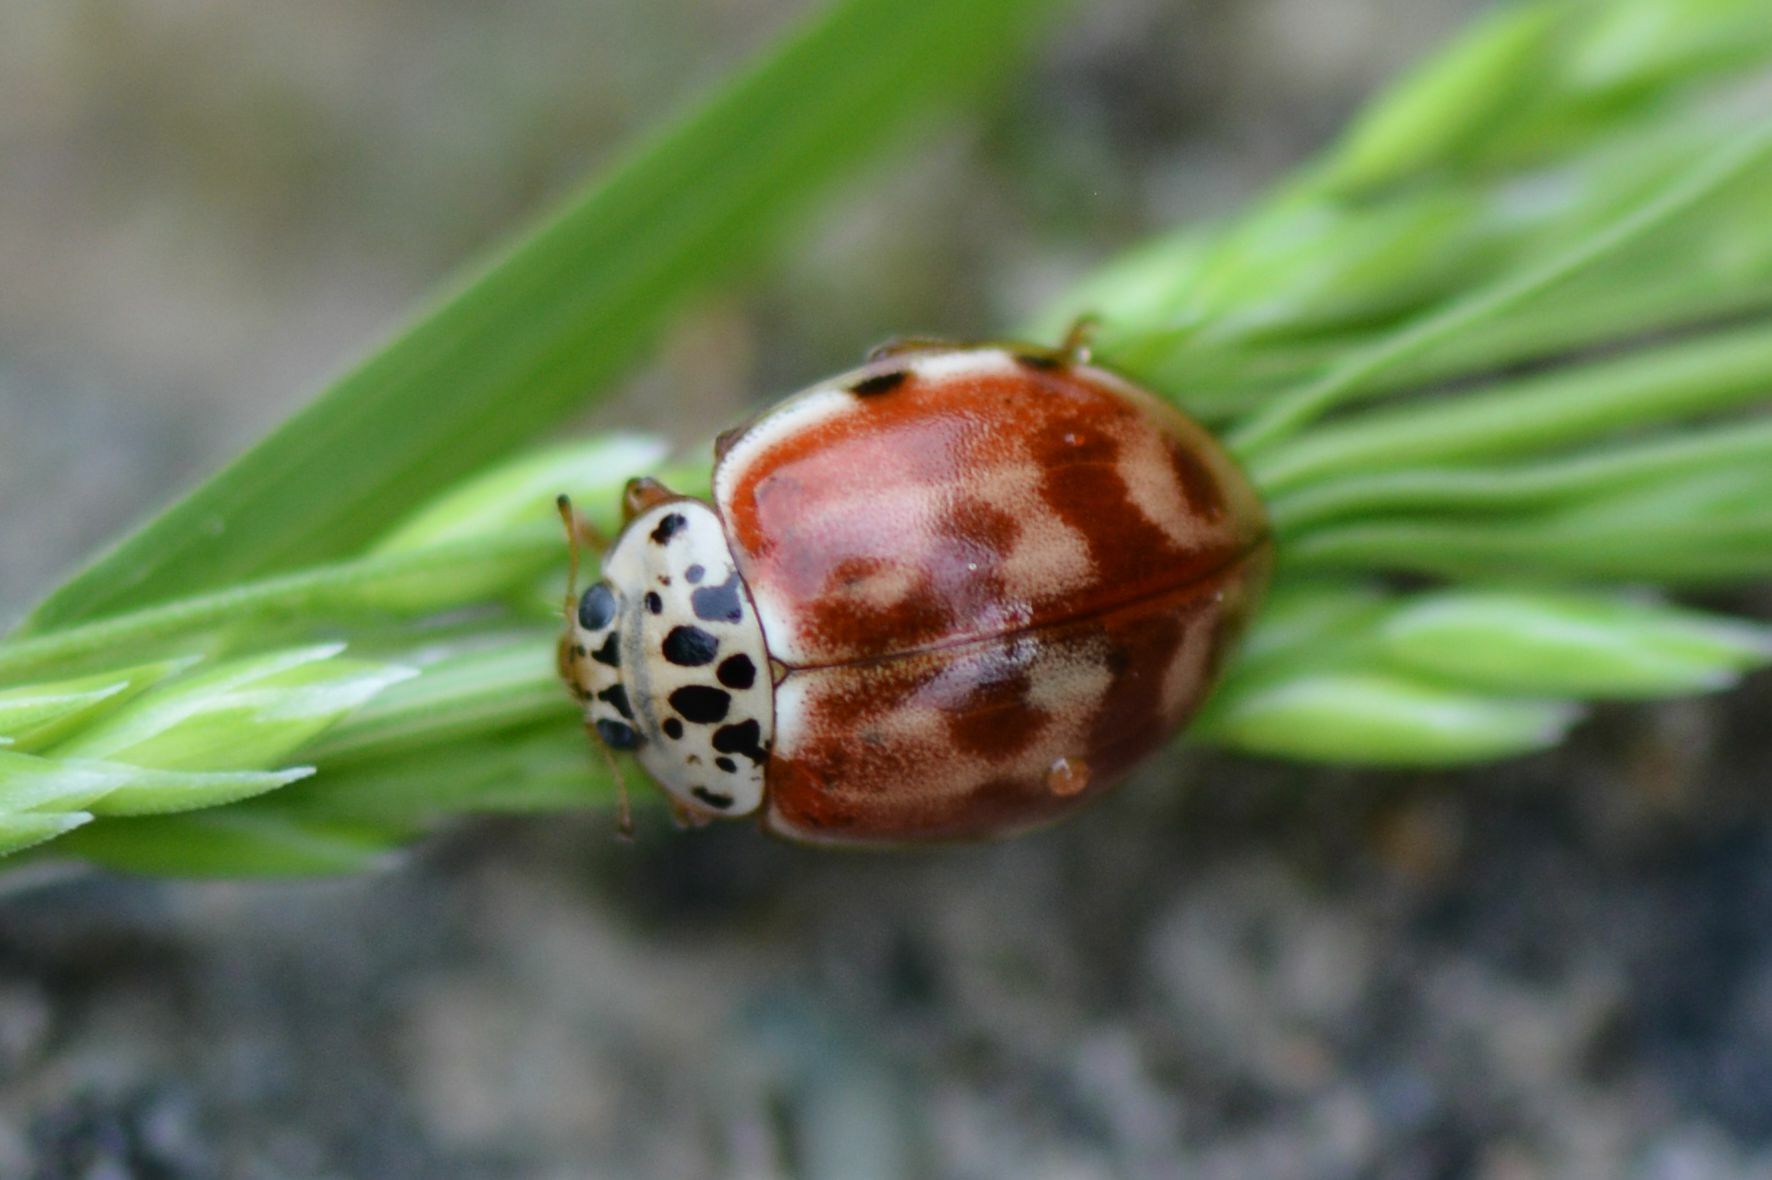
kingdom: Animalia
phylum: Arthropoda
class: Insecta
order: Coleoptera
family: Coccinellidae
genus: Harmonia
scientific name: Harmonia quadripunctata
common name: Cream-streaked ladybird
